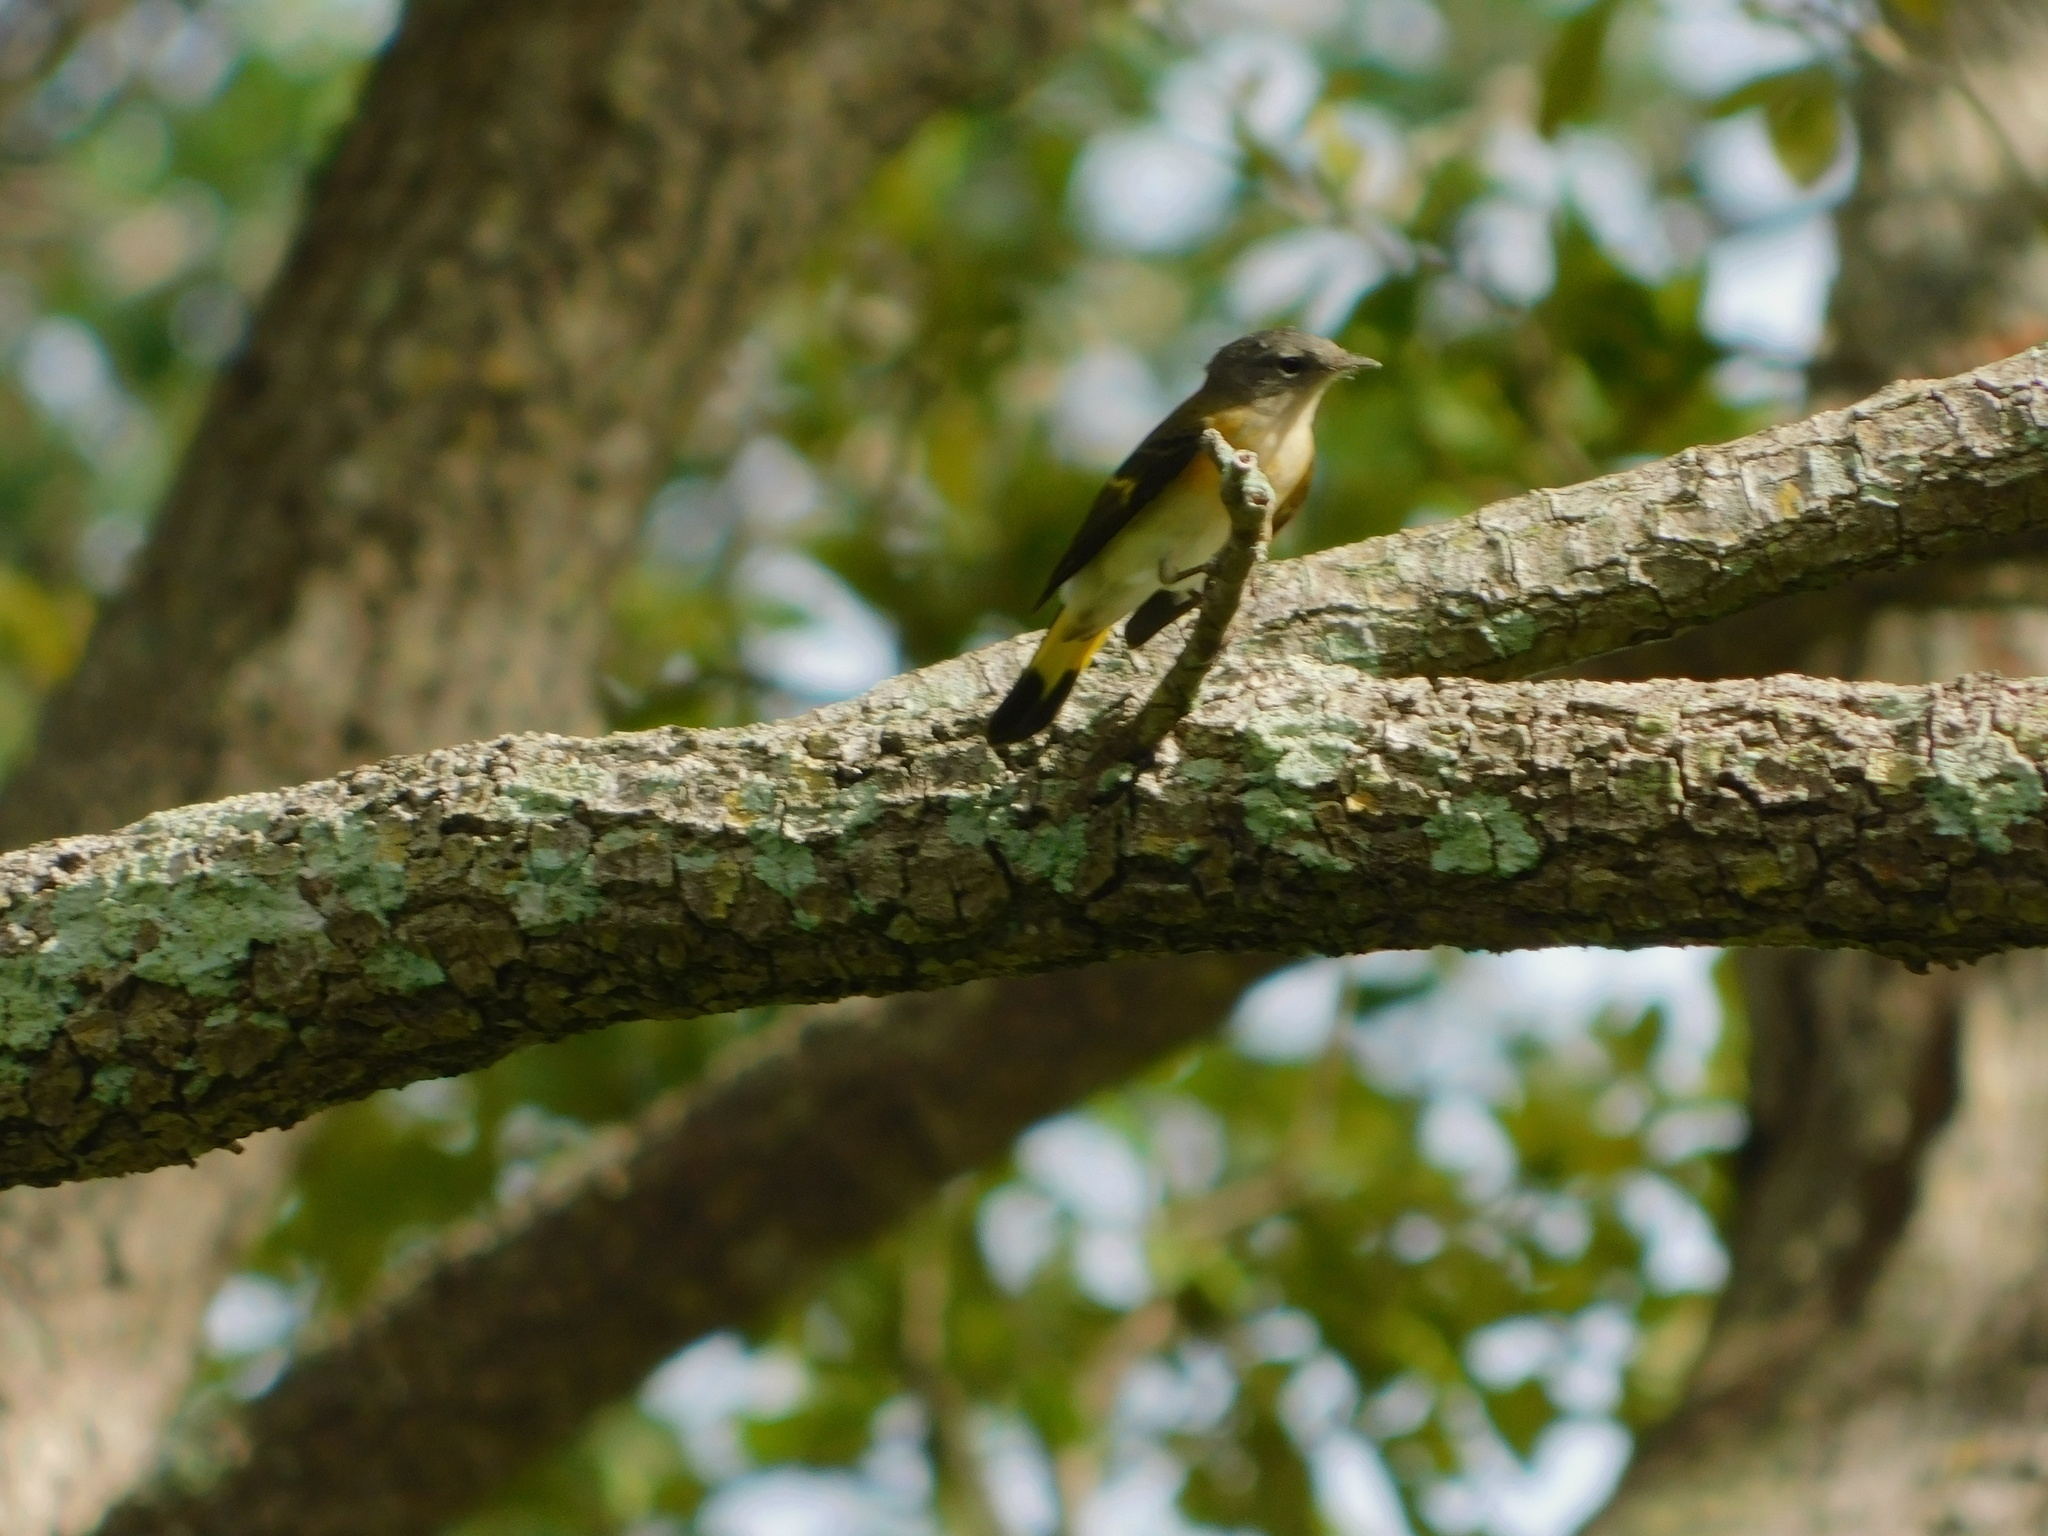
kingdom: Animalia
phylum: Chordata
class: Aves
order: Passeriformes
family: Parulidae
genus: Setophaga
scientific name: Setophaga ruticilla
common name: American redstart
